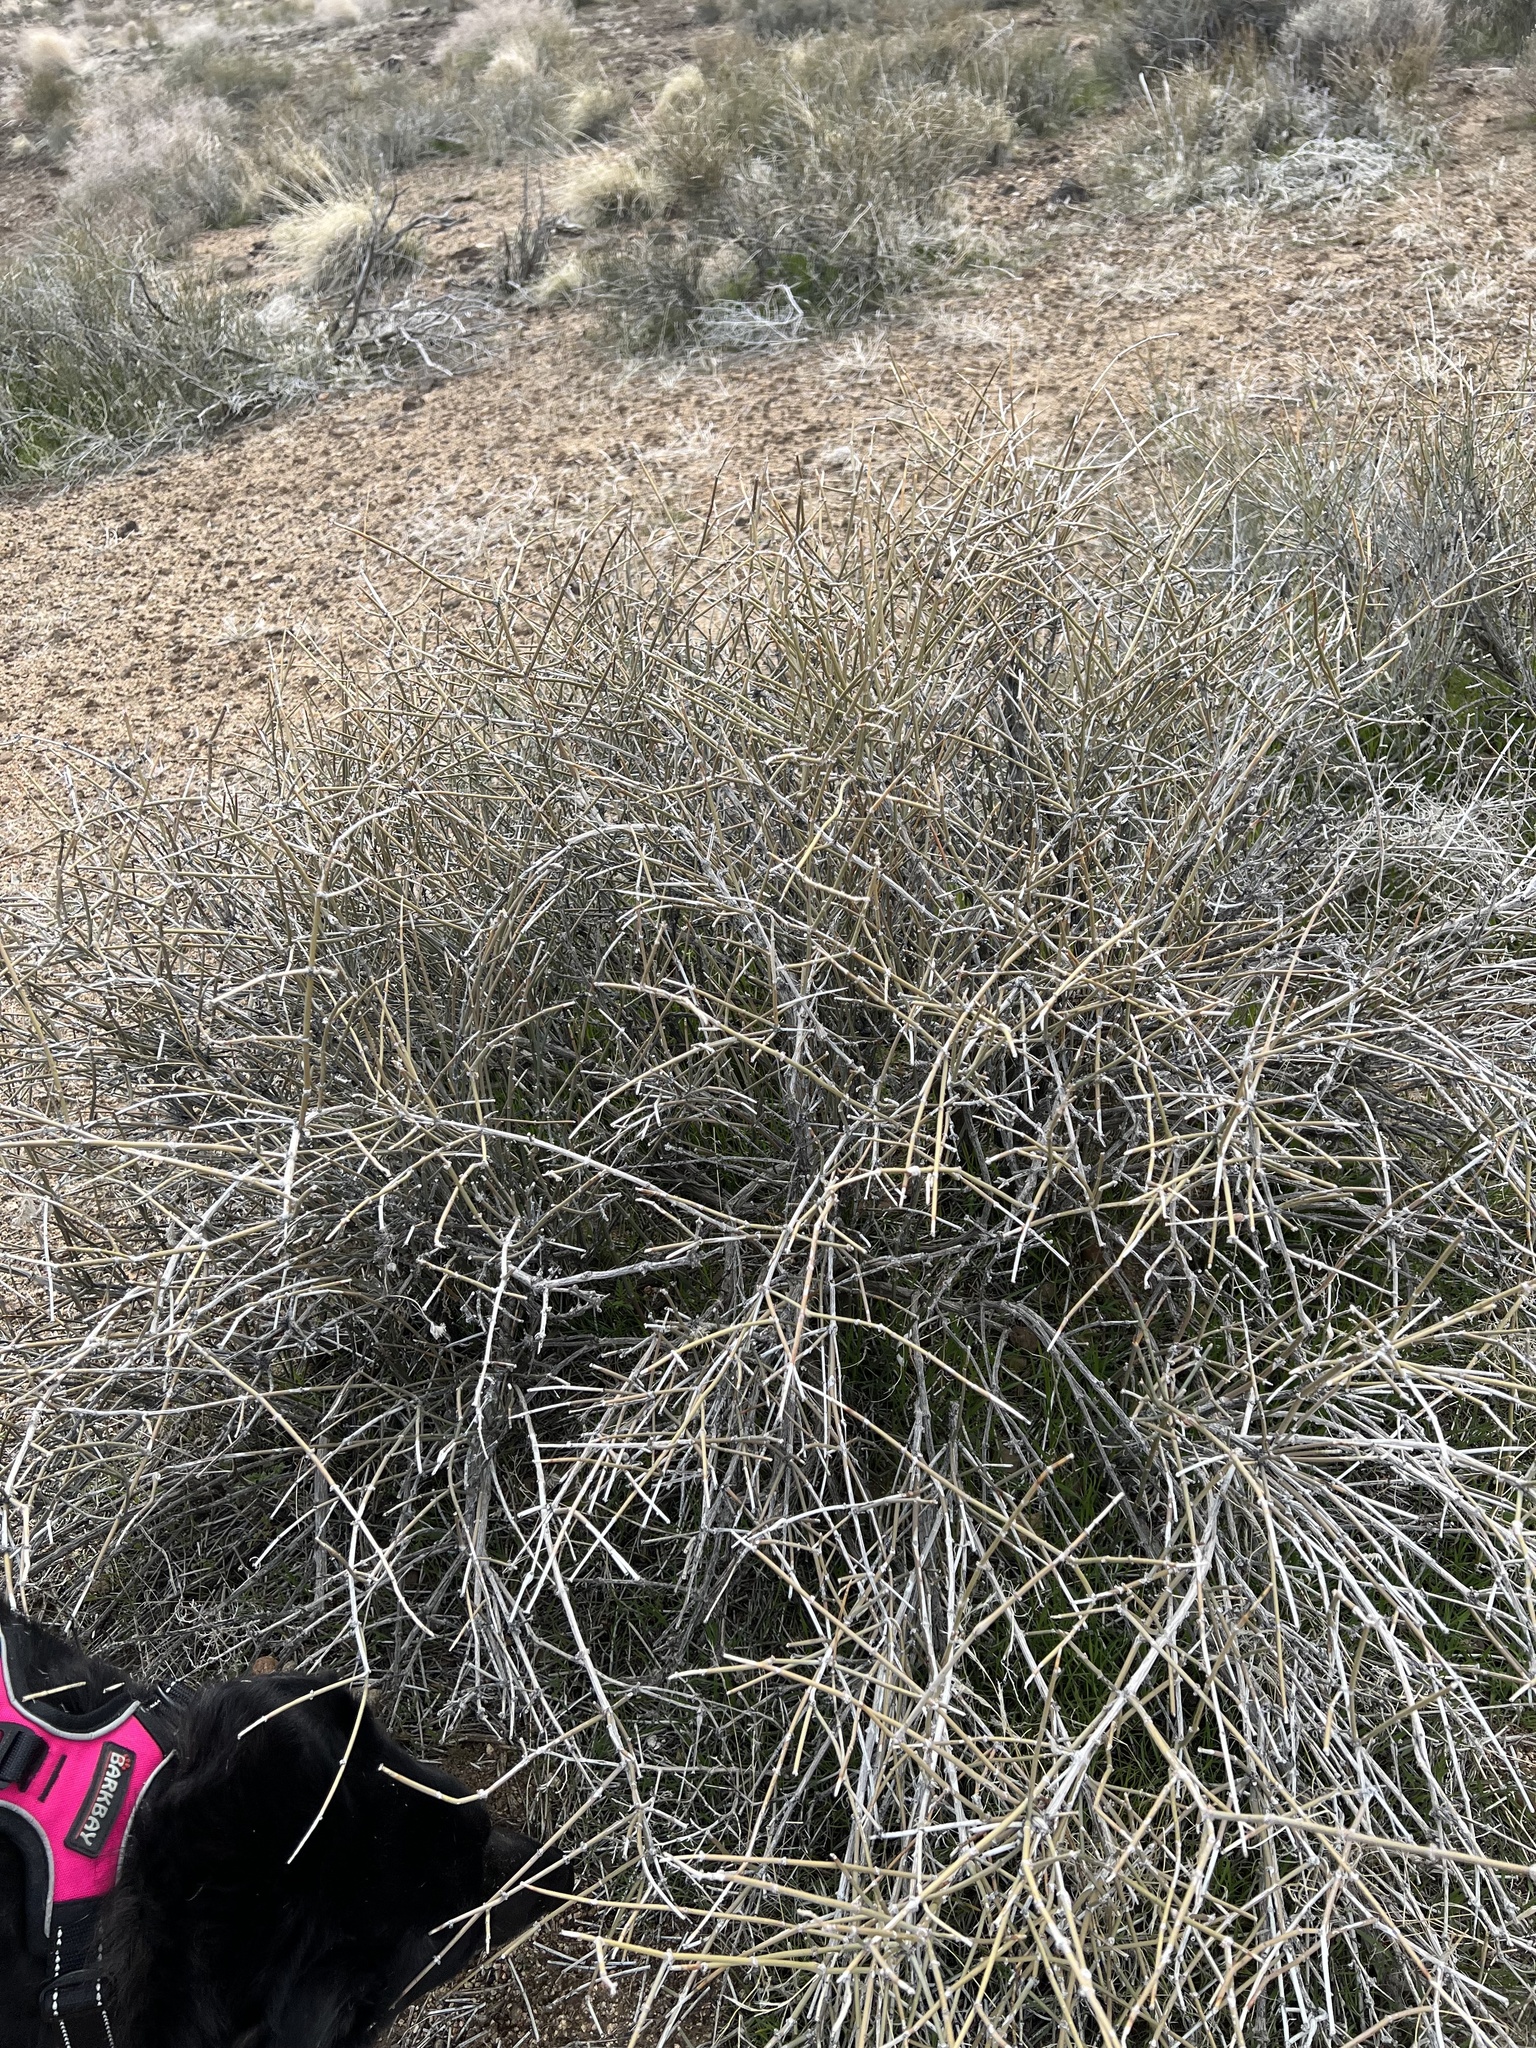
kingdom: Plantae
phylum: Tracheophyta
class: Gnetopsida
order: Ephedrales
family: Ephedraceae
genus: Ephedra
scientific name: Ephedra nevadensis
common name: Gray ephedra
